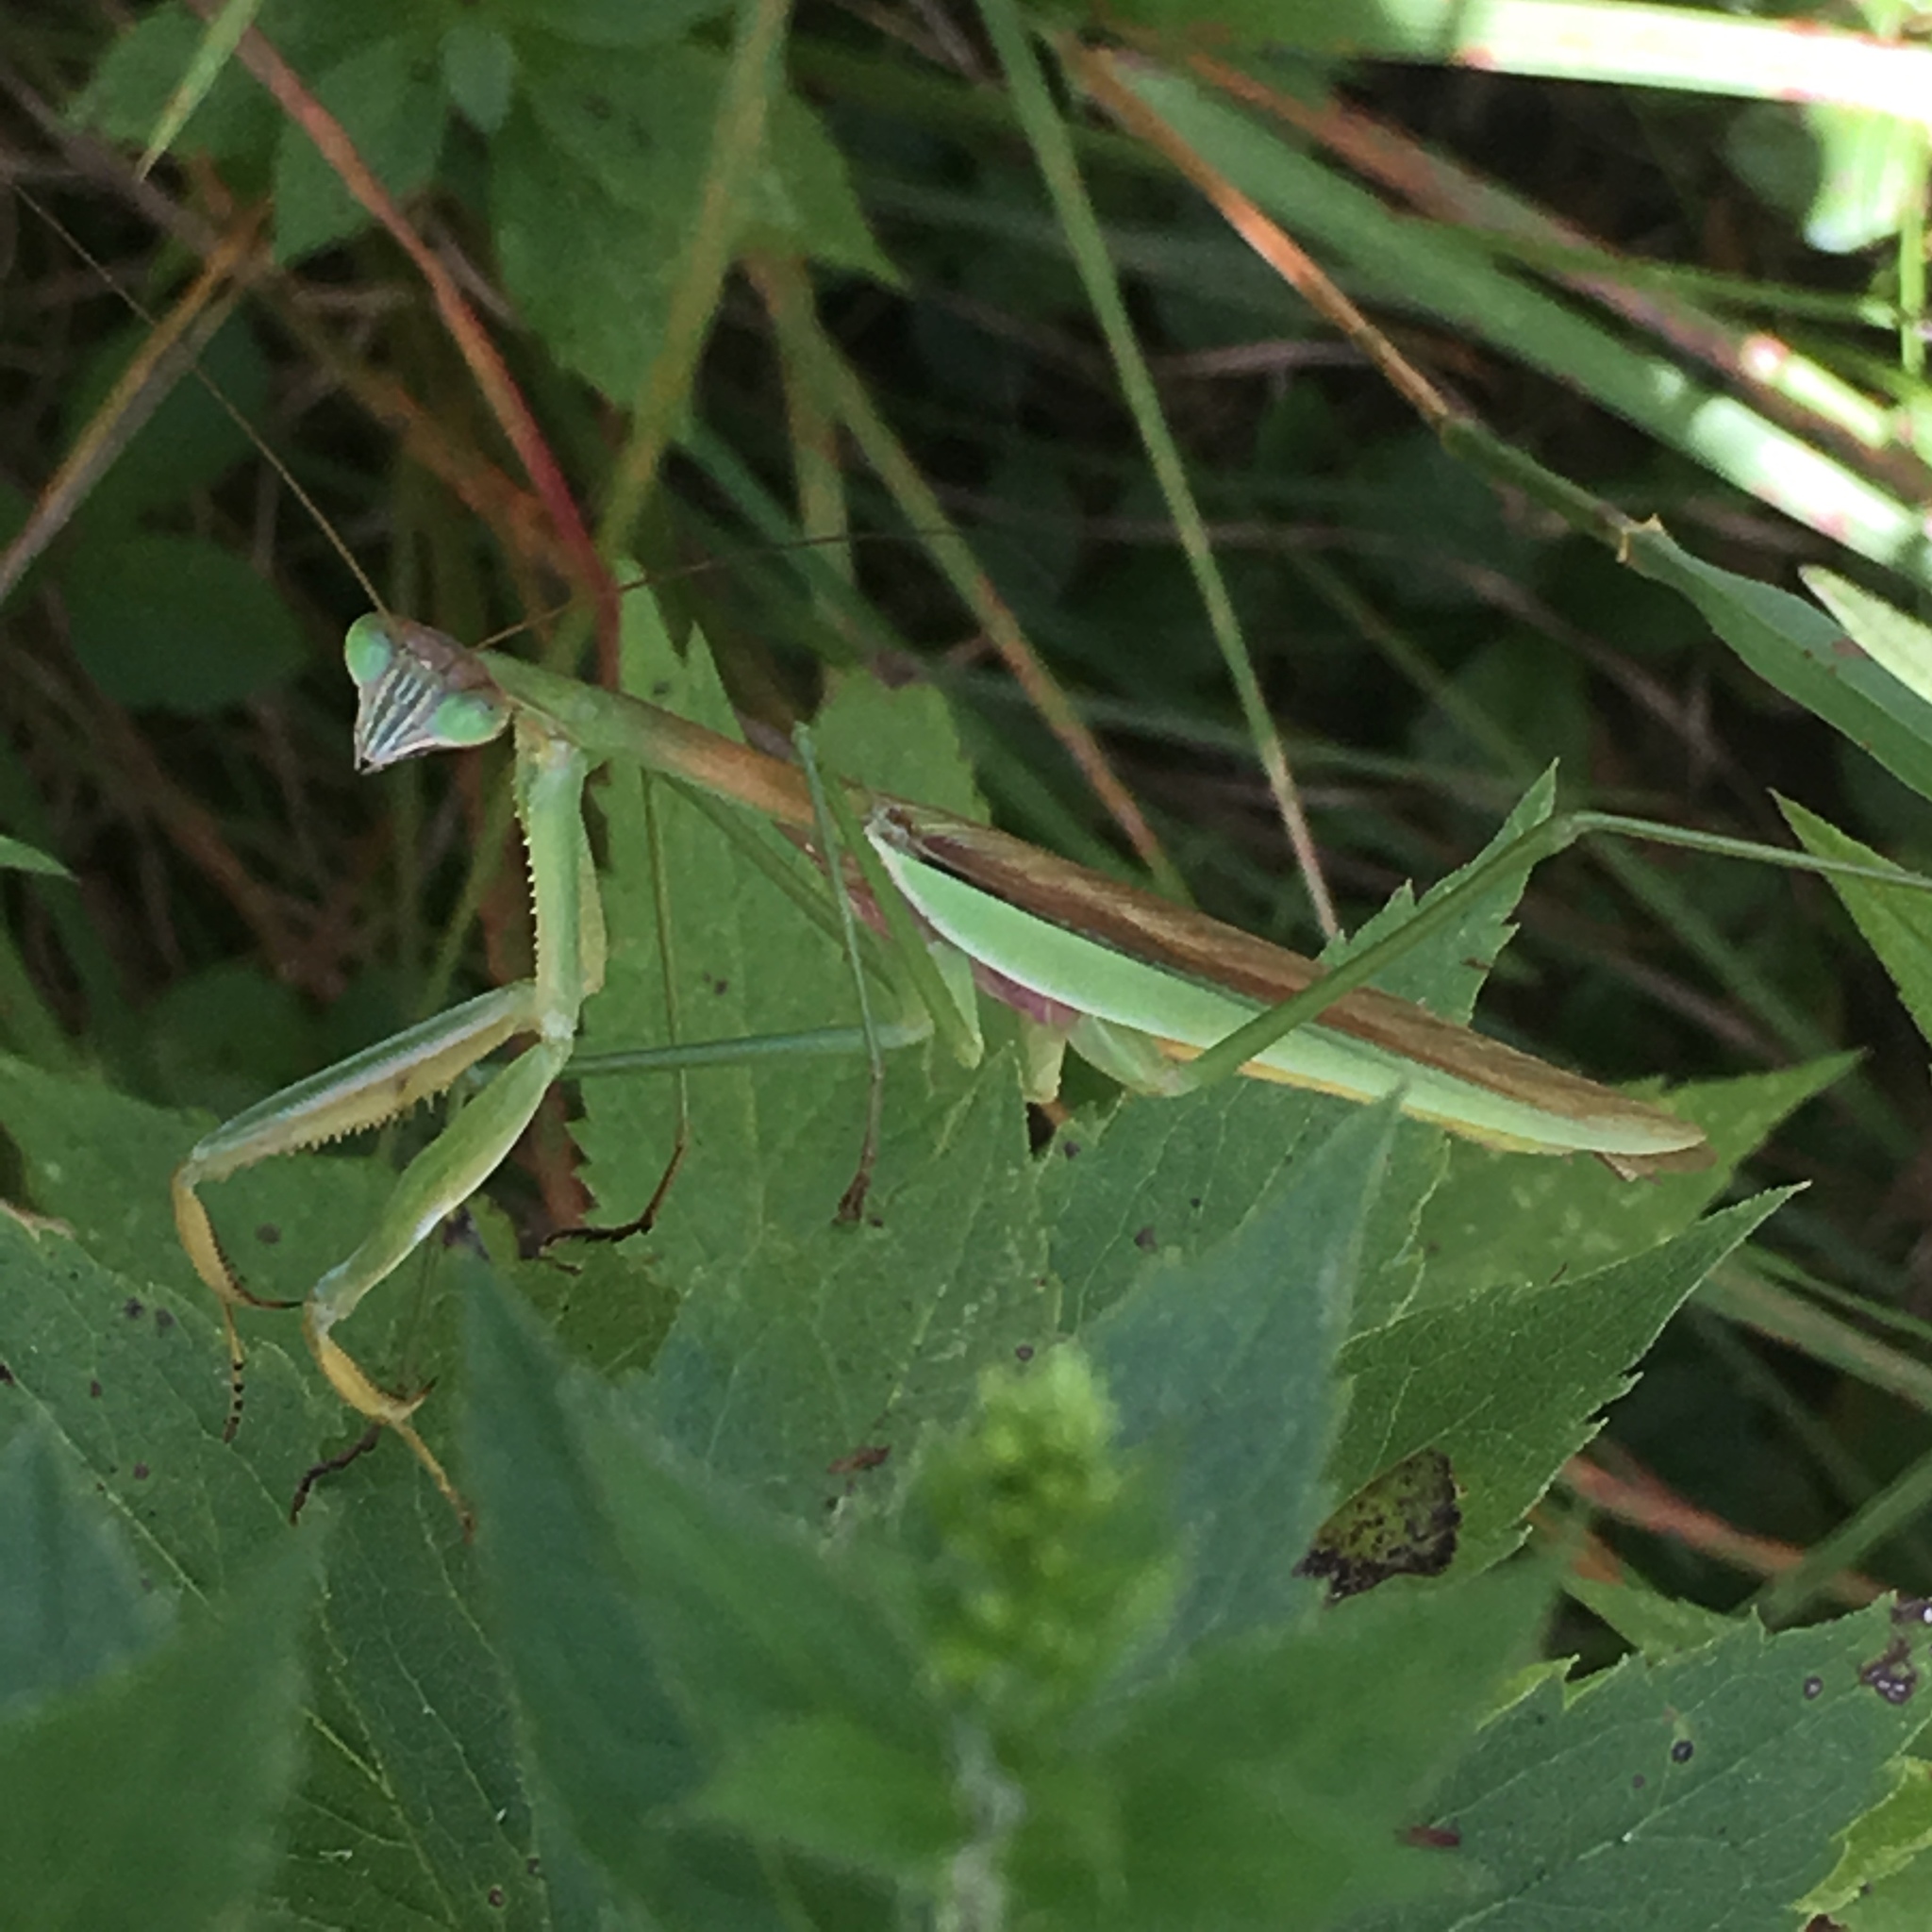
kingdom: Animalia
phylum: Arthropoda
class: Insecta
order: Mantodea
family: Mantidae
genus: Tenodera
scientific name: Tenodera sinensis
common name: Chinese mantis
